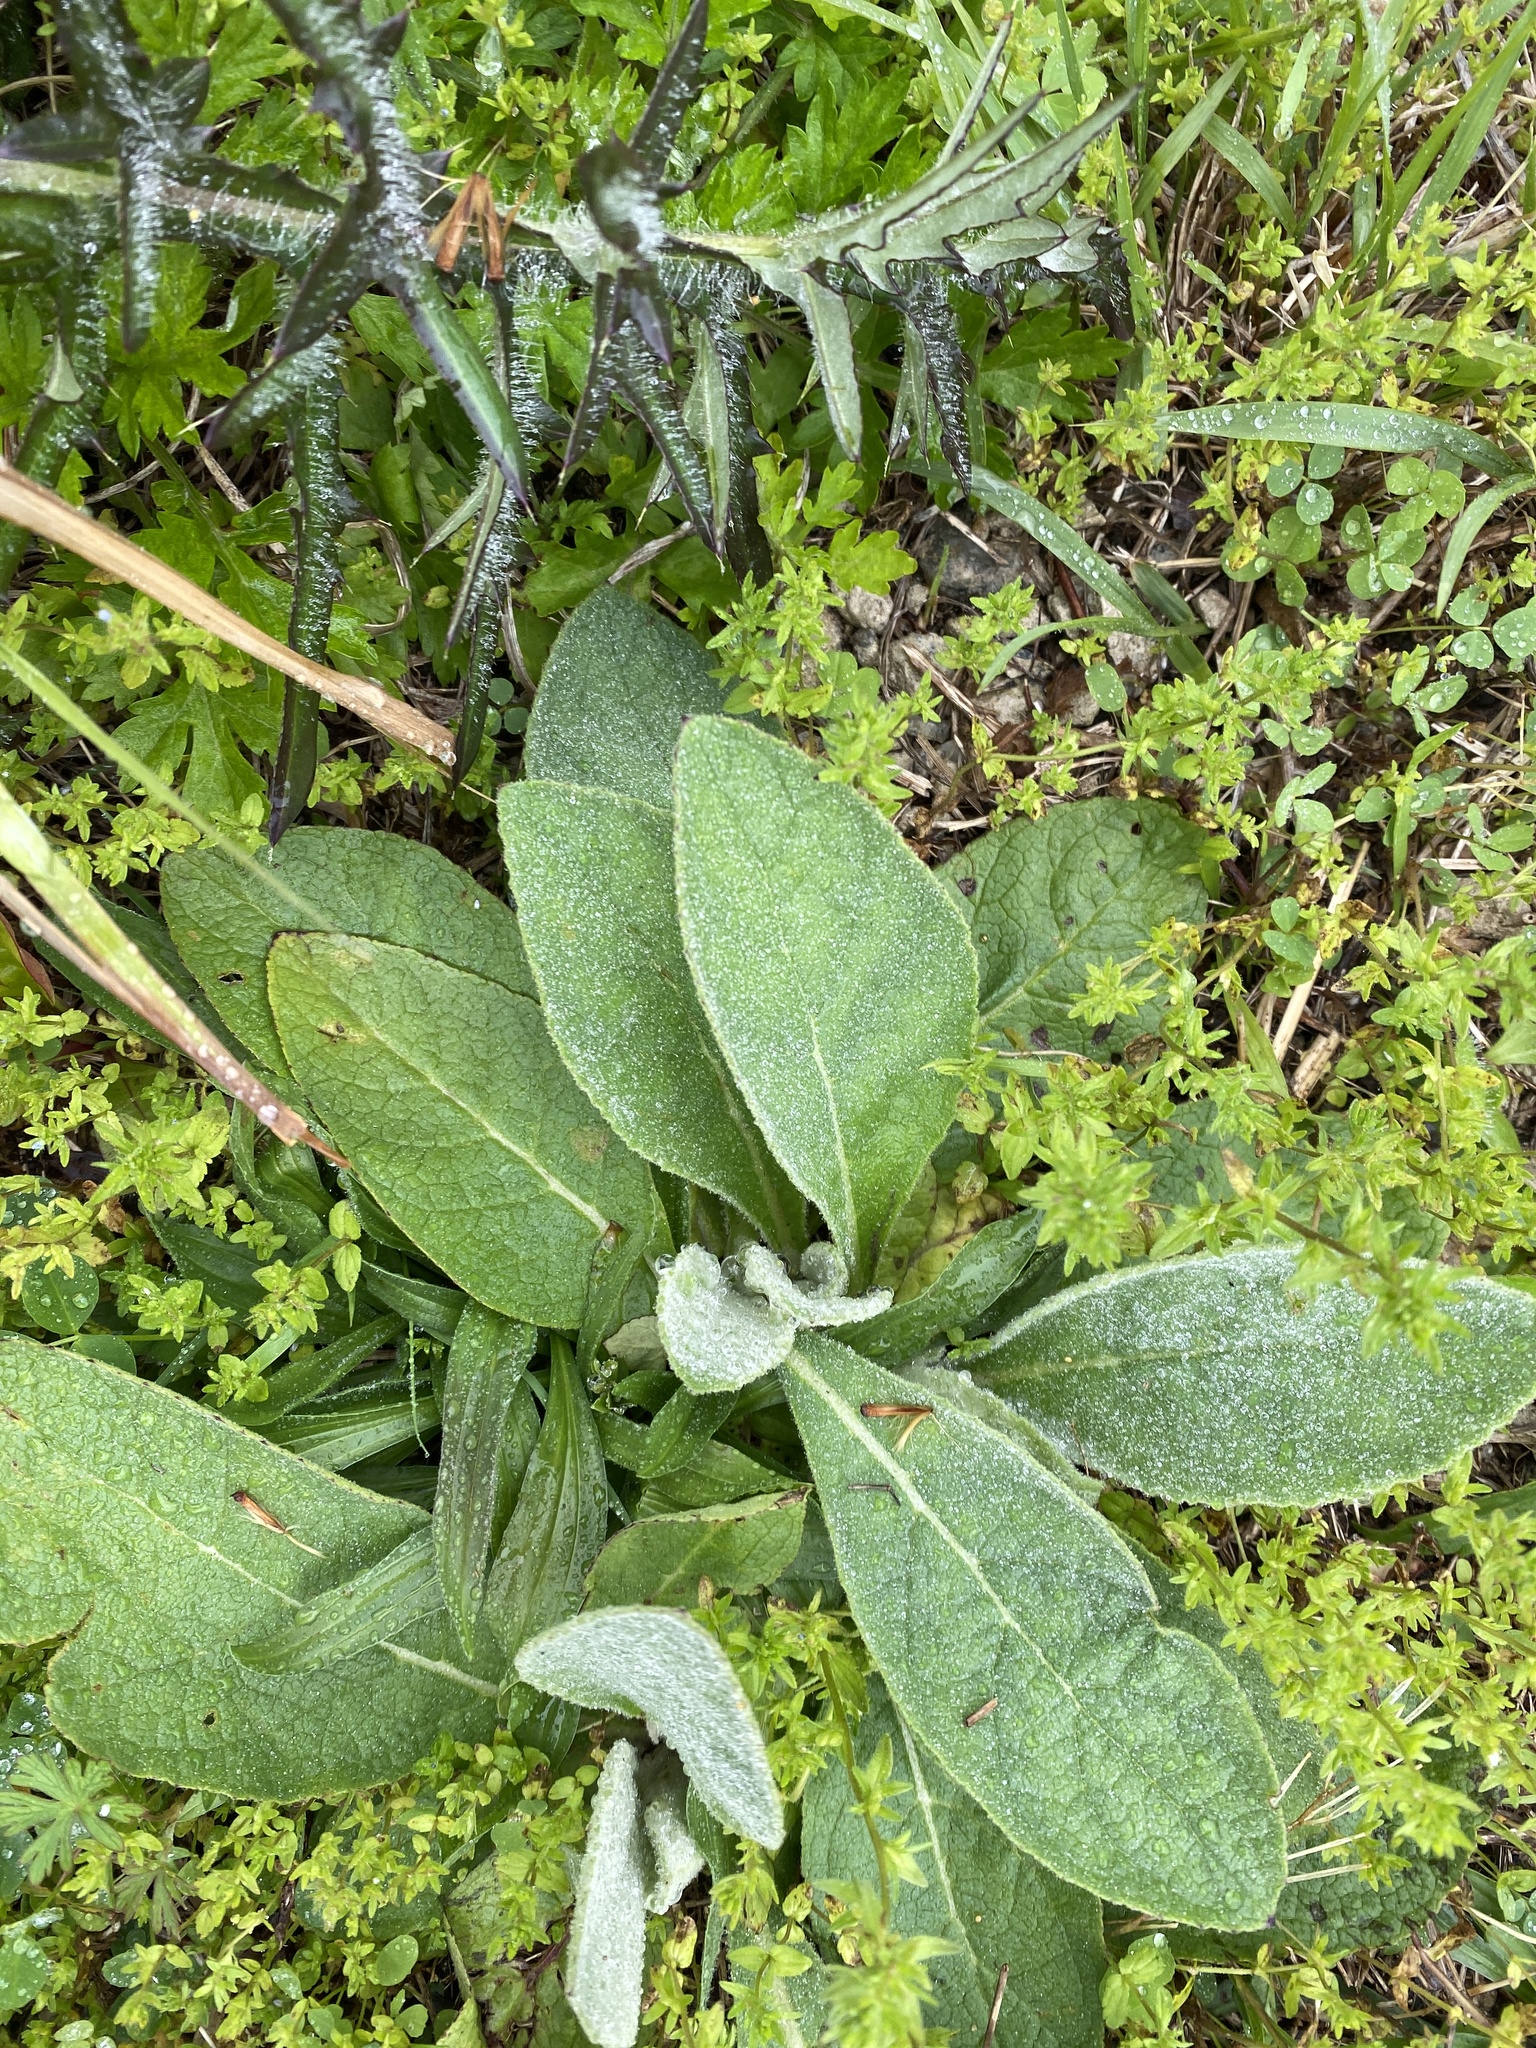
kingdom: Plantae
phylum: Tracheophyta
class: Magnoliopsida
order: Lamiales
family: Scrophulariaceae
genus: Verbascum
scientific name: Verbascum thapsus
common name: Common mullein
